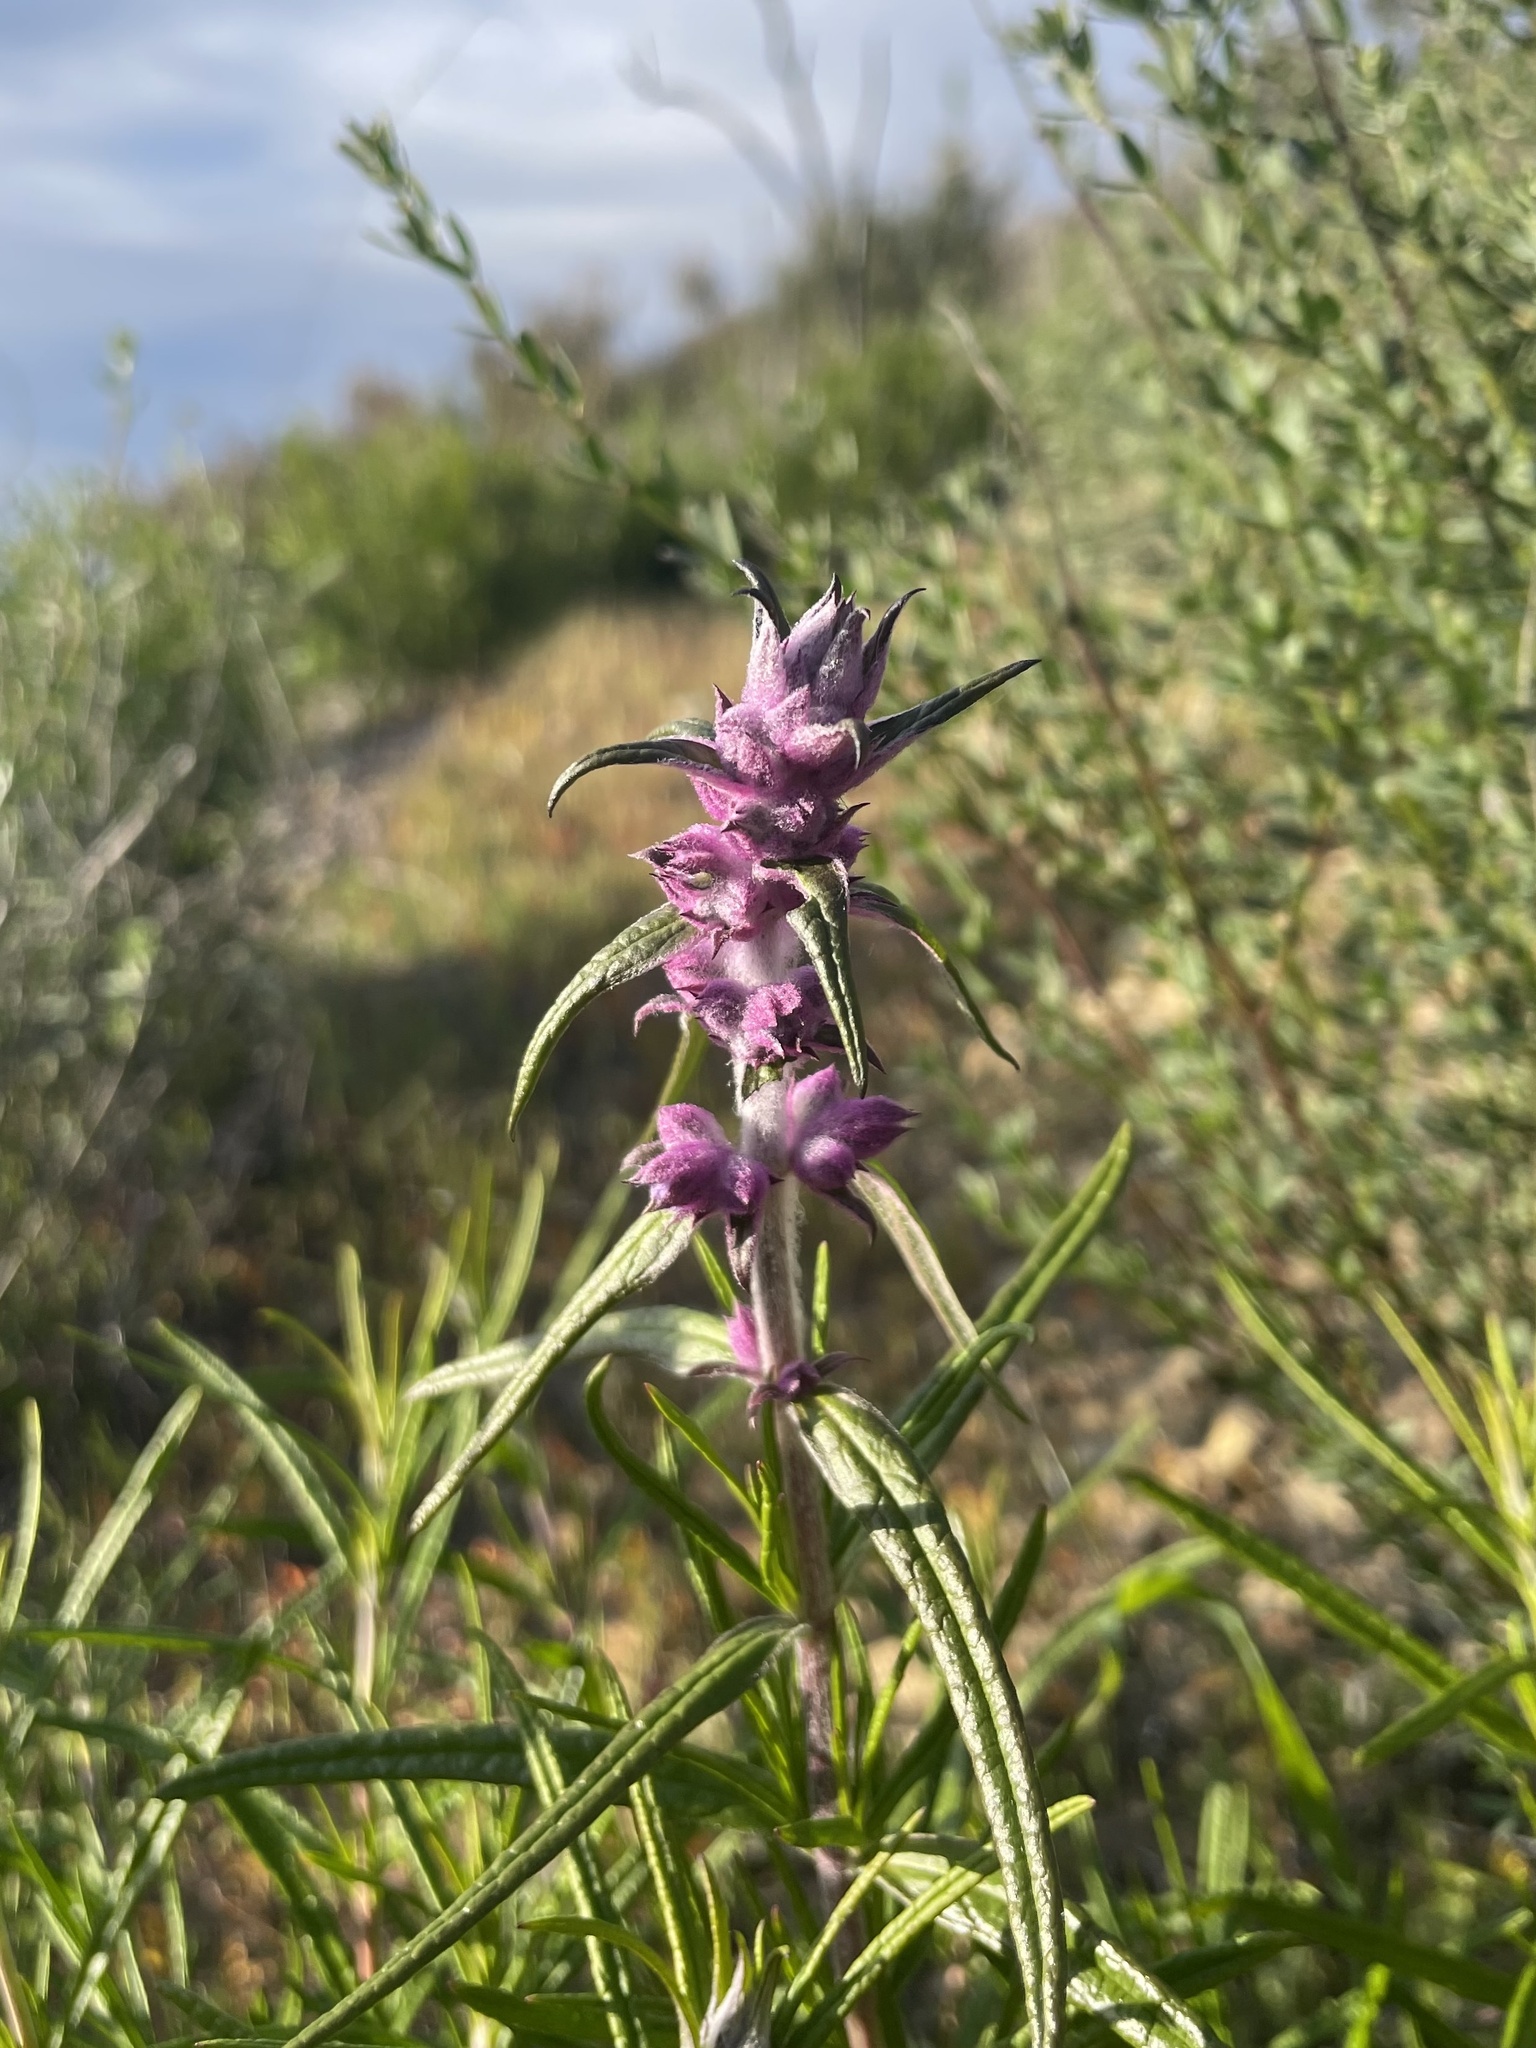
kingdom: Plantae
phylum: Tracheophyta
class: Magnoliopsida
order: Lamiales
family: Lamiaceae
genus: Trichostema
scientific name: Trichostema lanatum
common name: Woolly bluecurls
